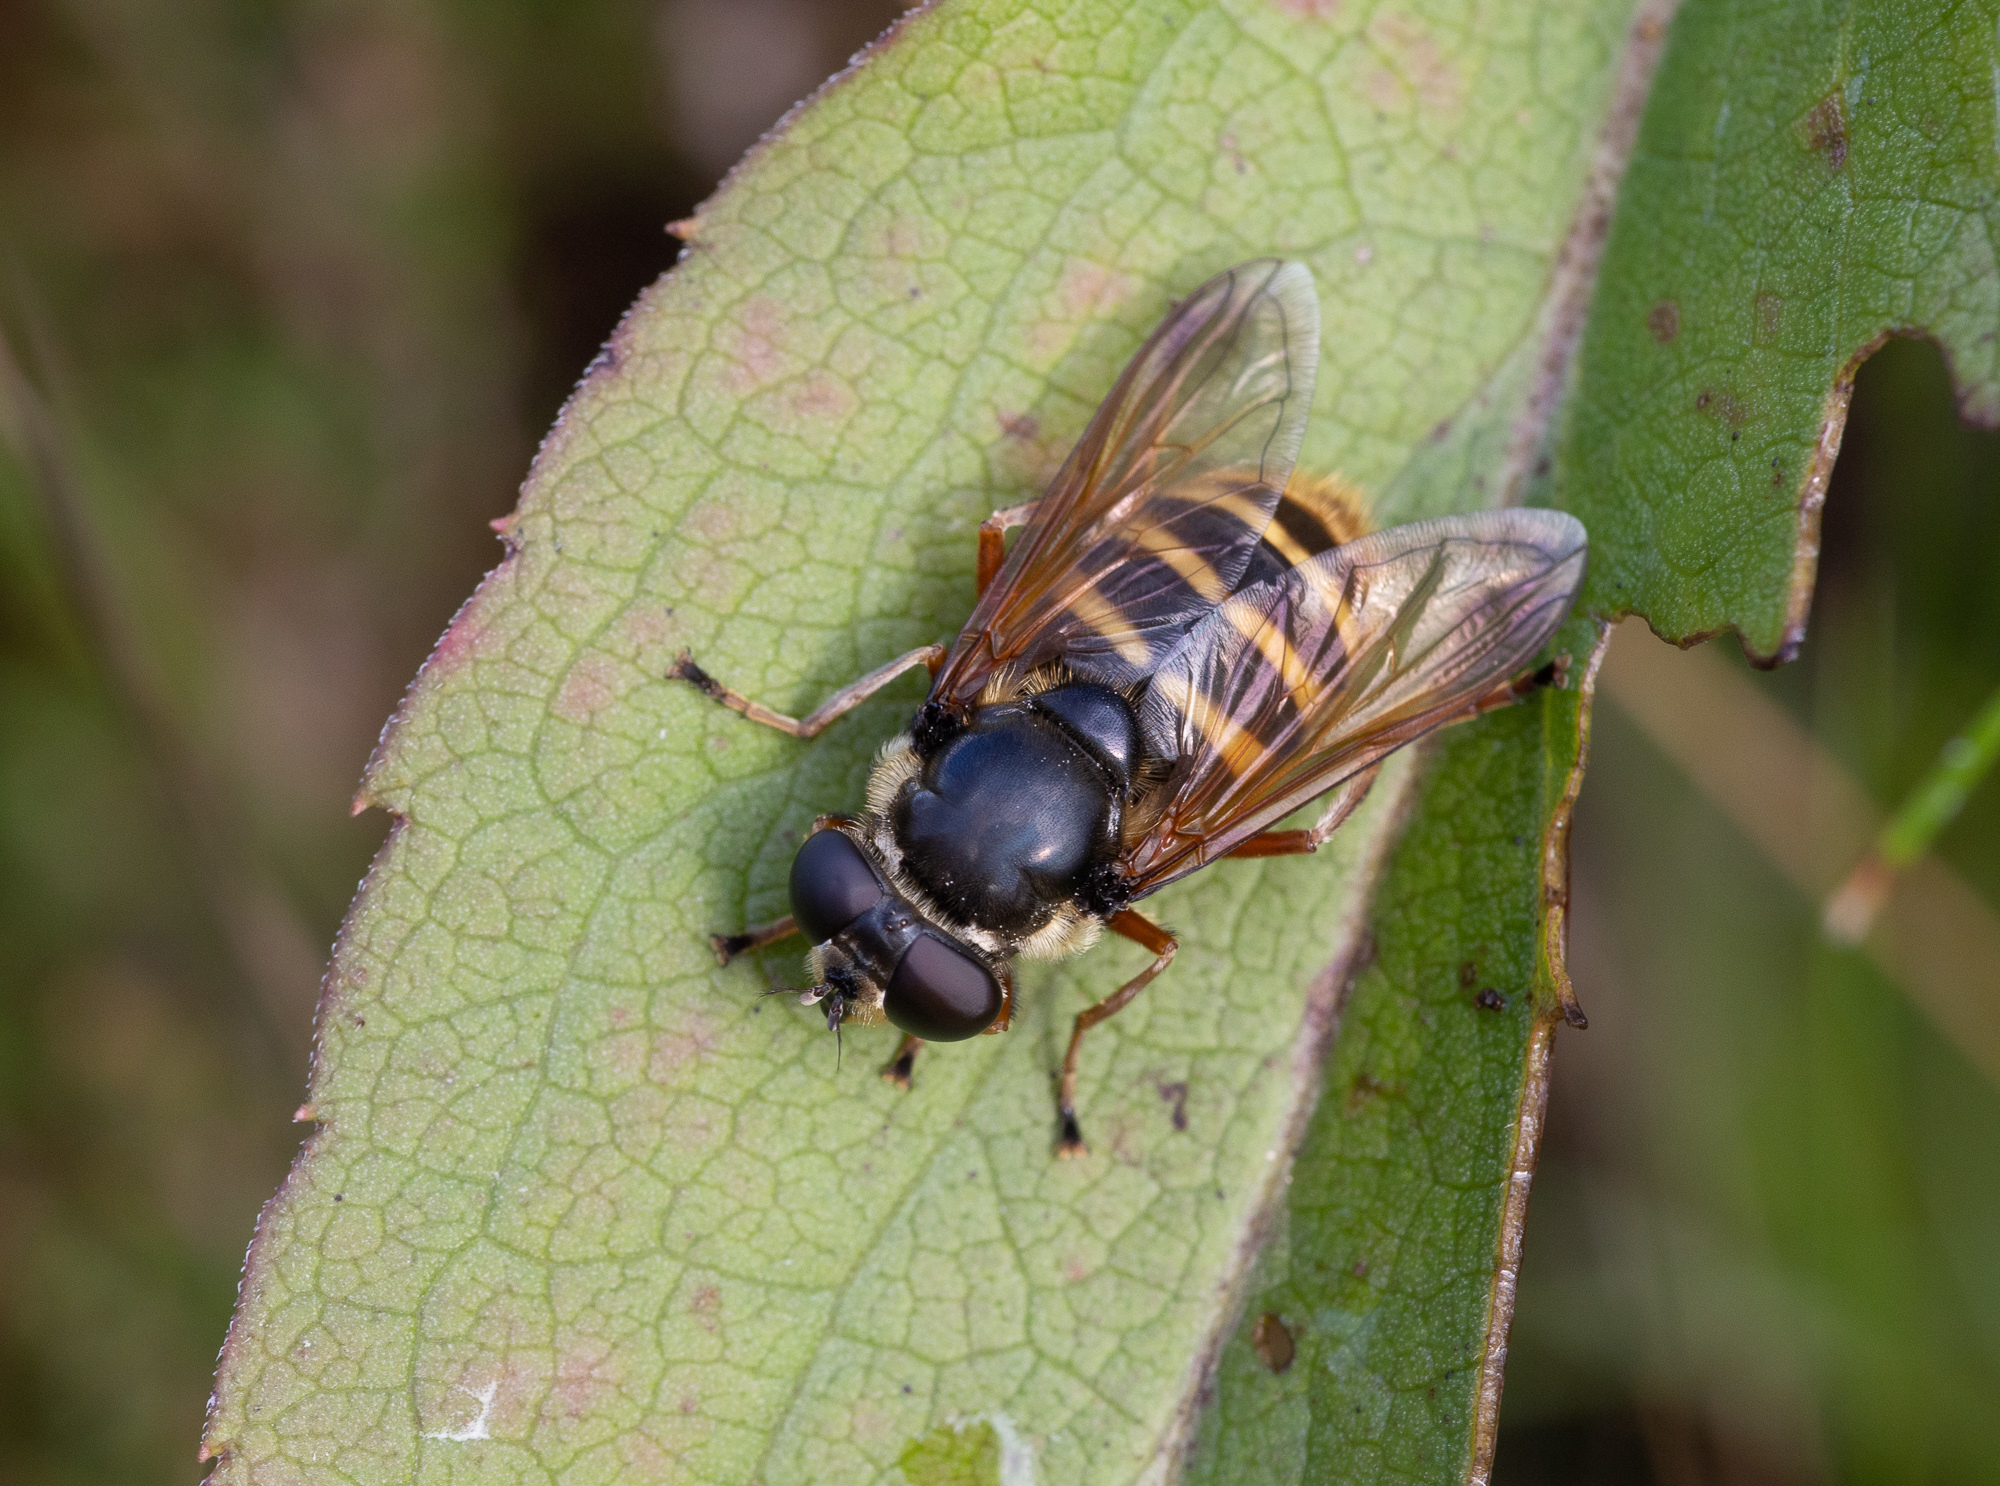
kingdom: Animalia
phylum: Arthropoda
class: Insecta
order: Diptera
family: Syrphidae
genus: Sericomyia
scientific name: Sericomyia silentis
